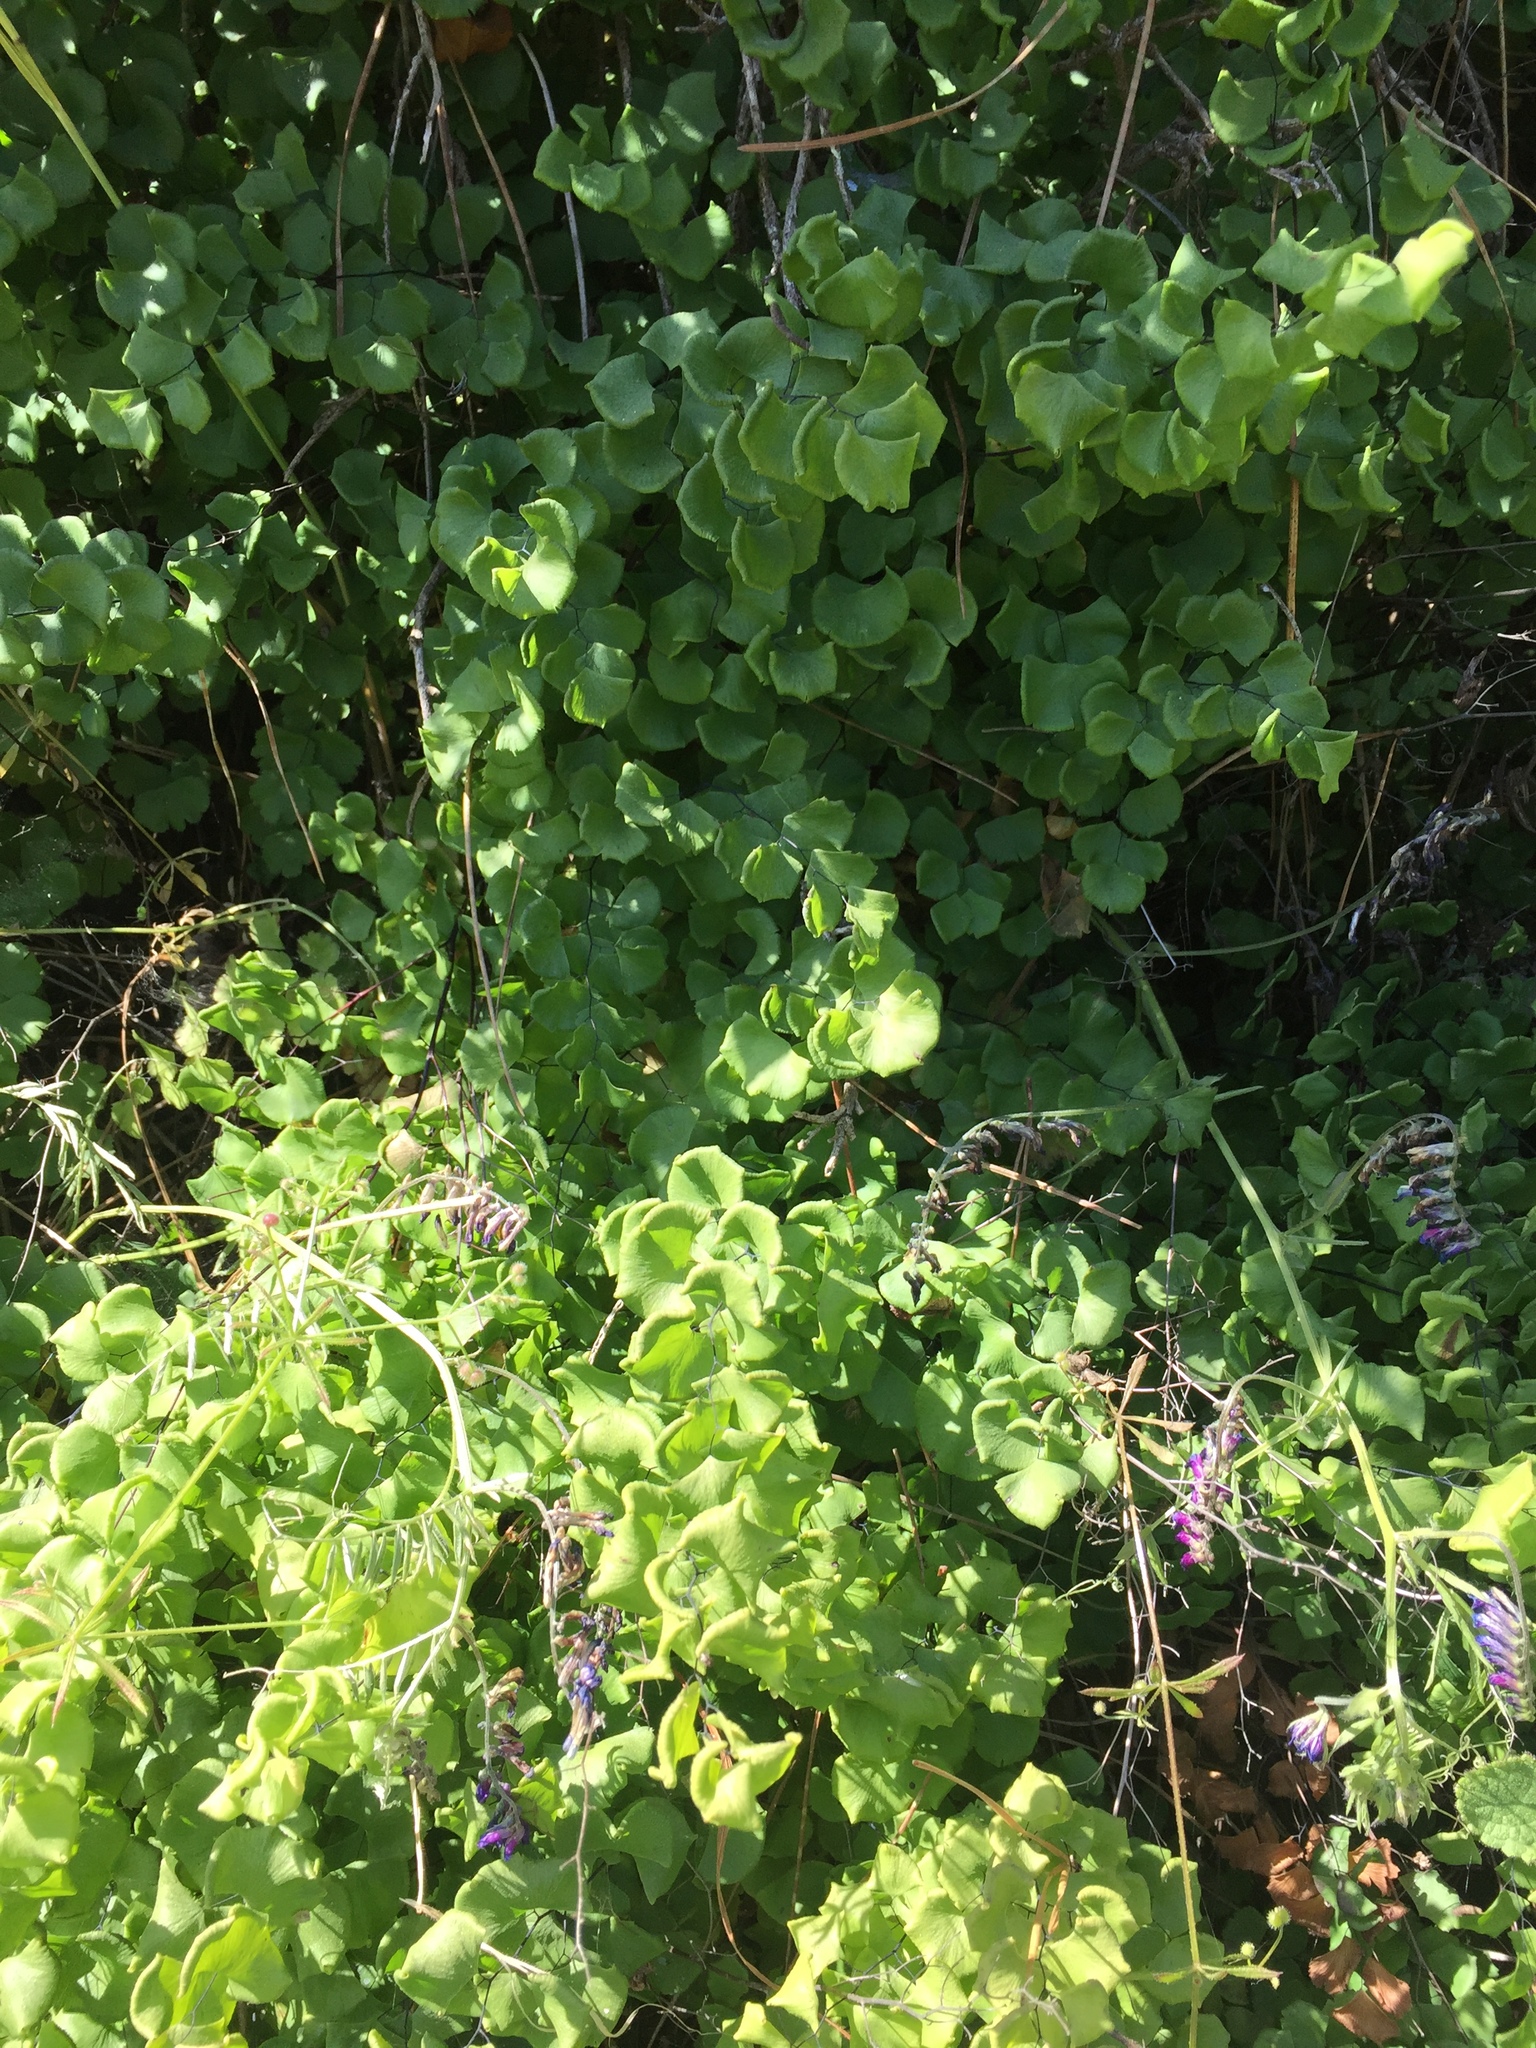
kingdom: Plantae
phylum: Tracheophyta
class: Polypodiopsida
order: Polypodiales
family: Pteridaceae
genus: Adiantum
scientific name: Adiantum jordanii
